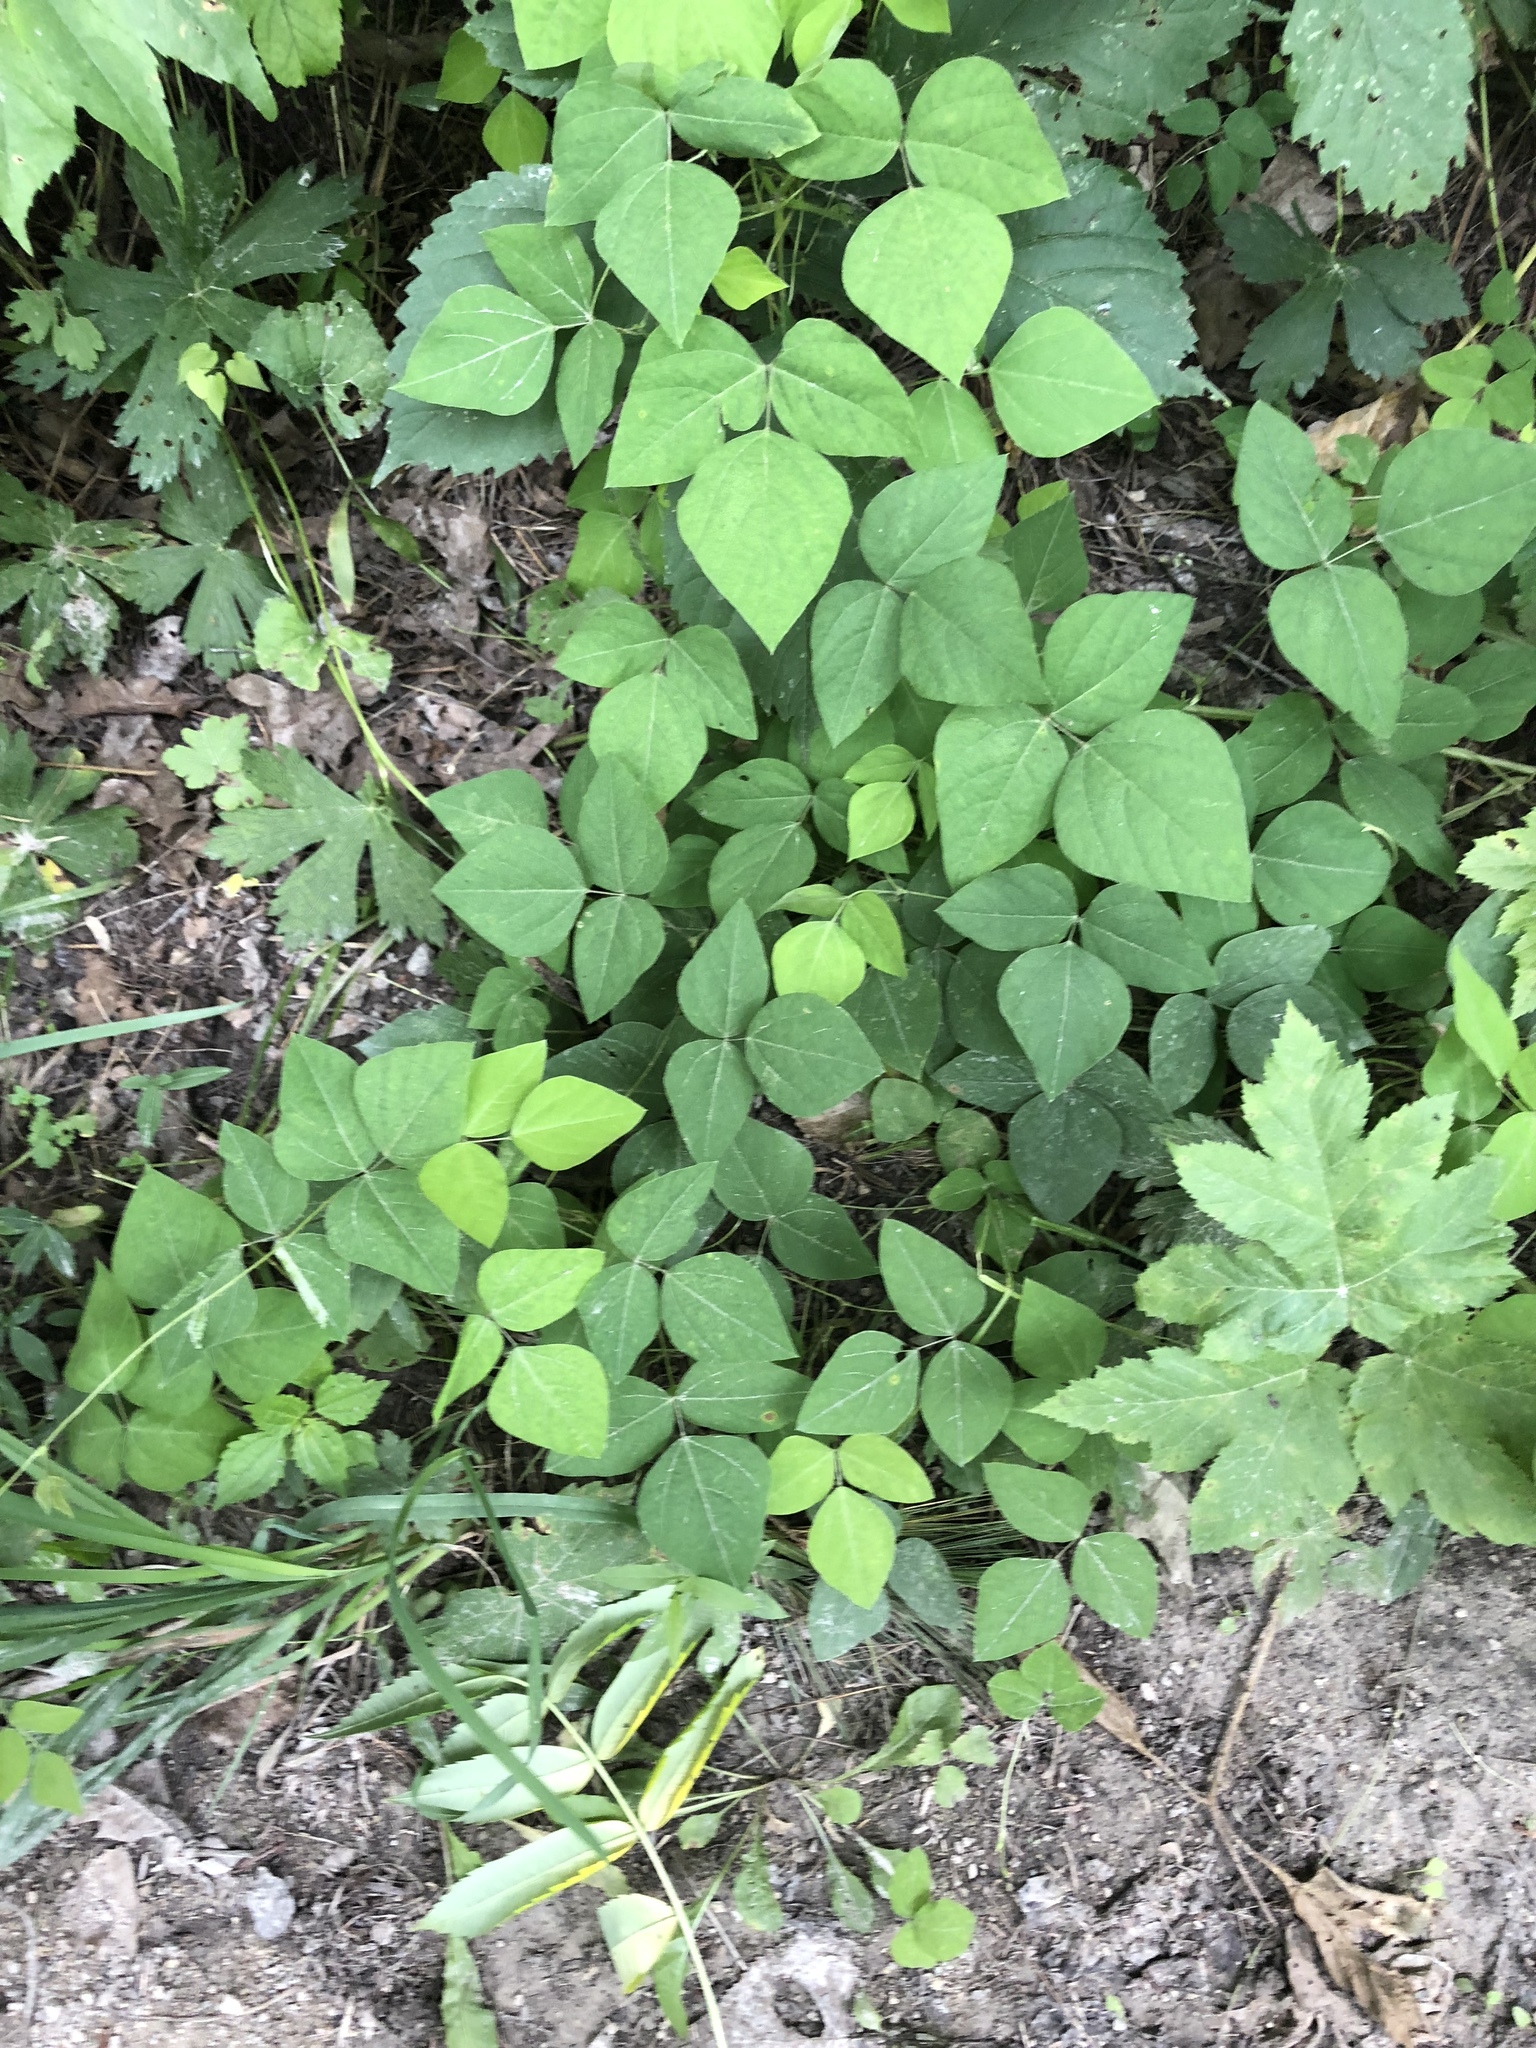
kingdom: Plantae
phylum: Tracheophyta
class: Magnoliopsida
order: Fabales
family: Fabaceae
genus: Amphicarpaea
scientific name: Amphicarpaea bracteata
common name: American hog peanut
